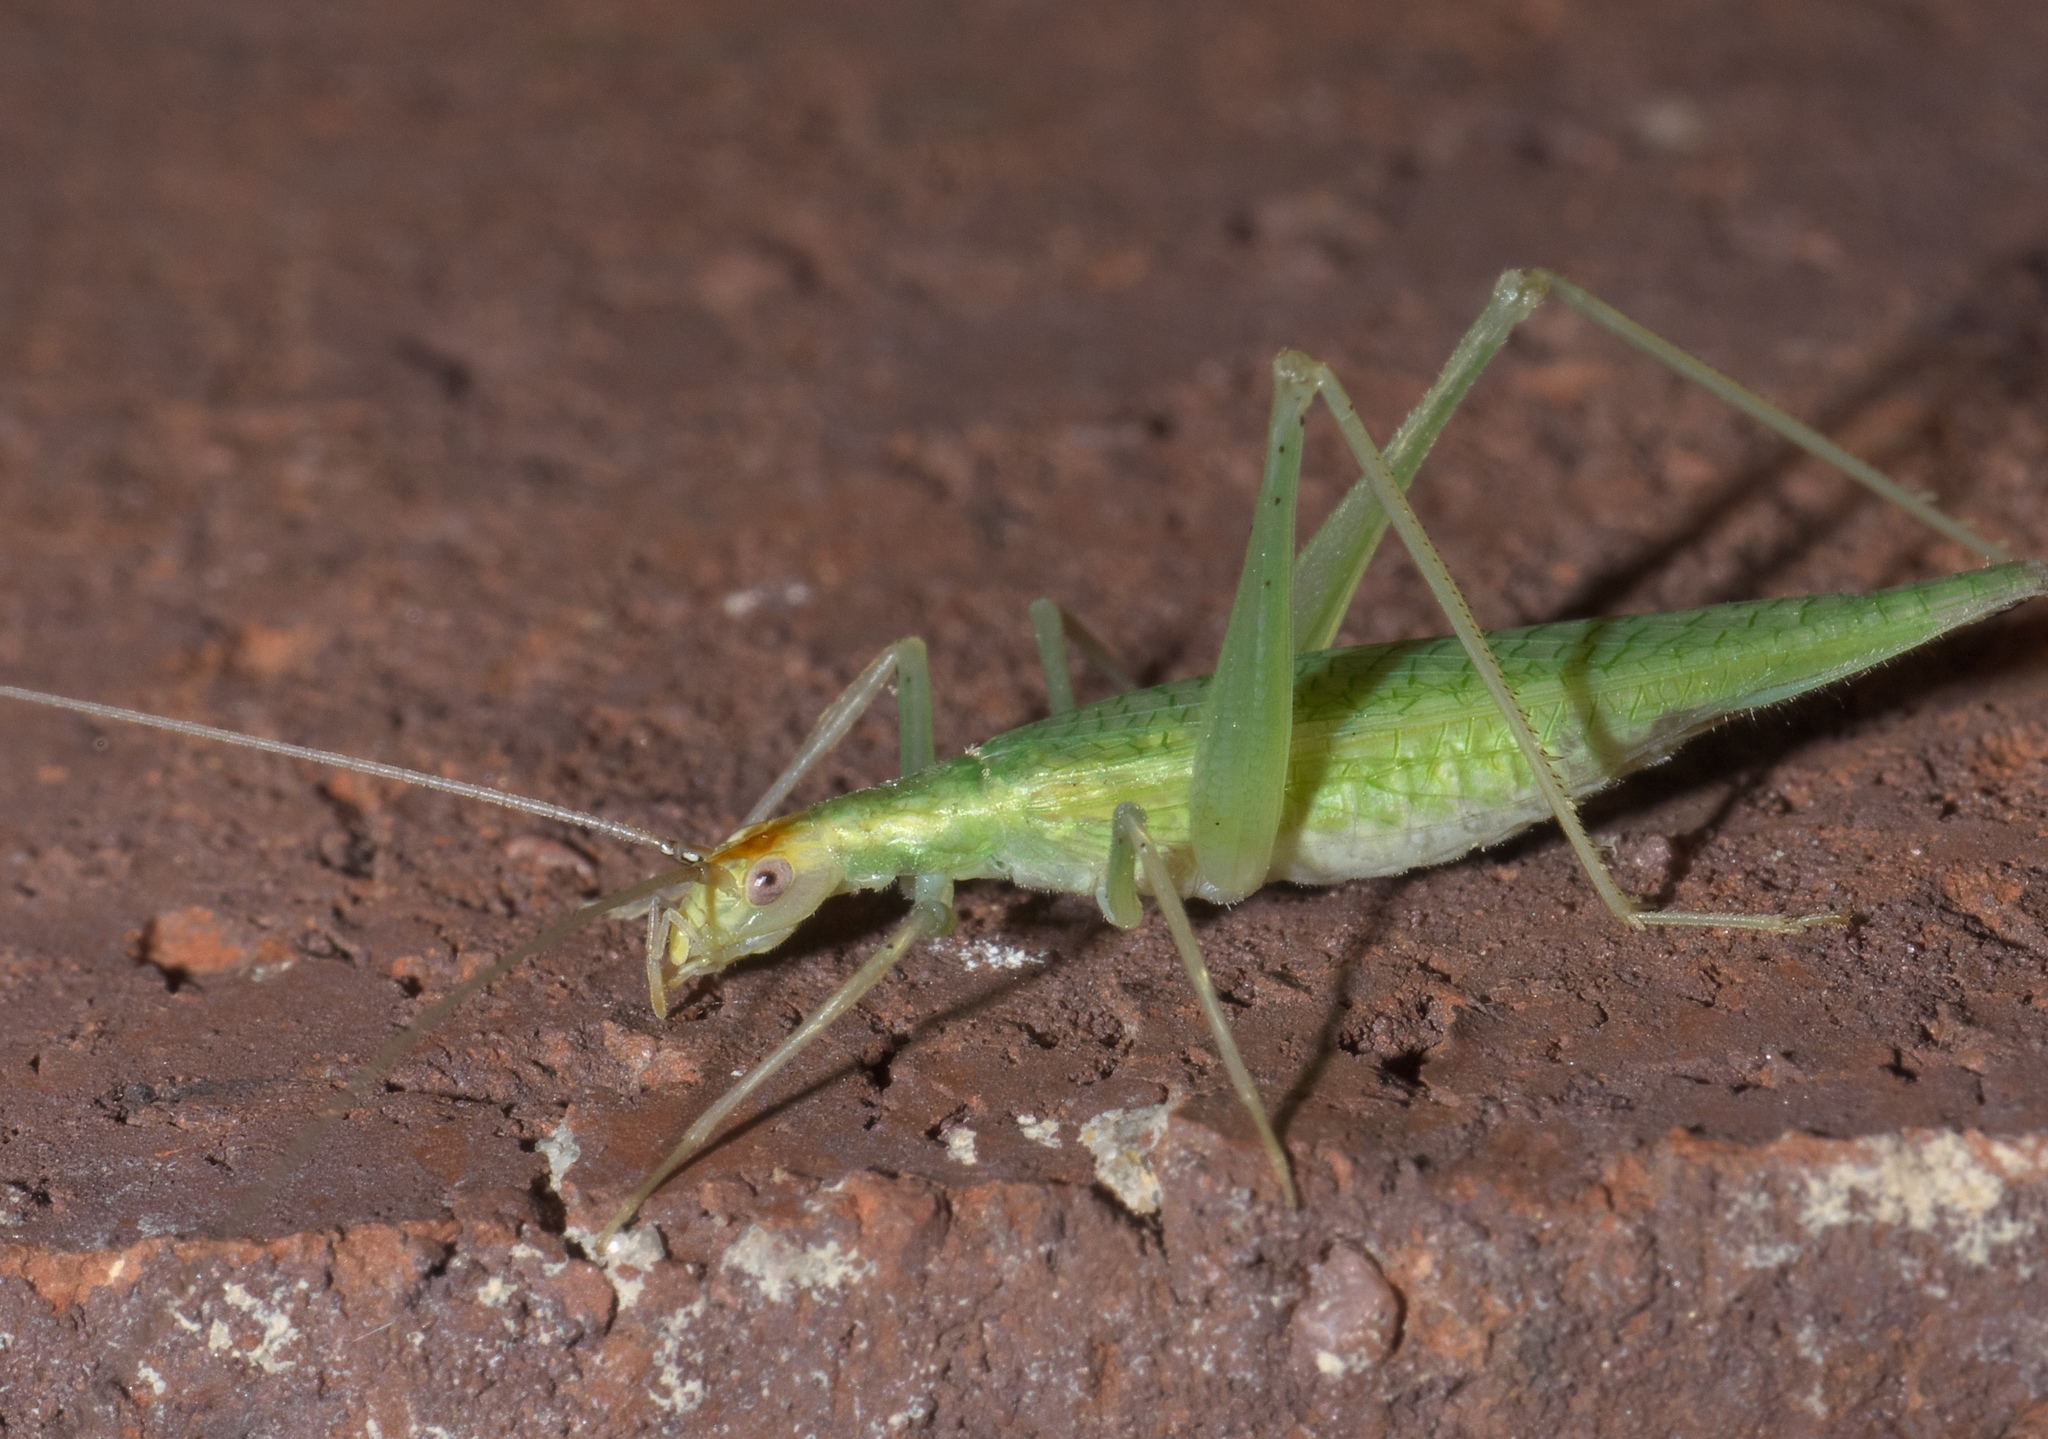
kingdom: Animalia
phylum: Arthropoda
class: Insecta
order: Orthoptera
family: Gryllidae
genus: Oecanthus
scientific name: Oecanthus niveus
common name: Narrow-winged tree cricket
